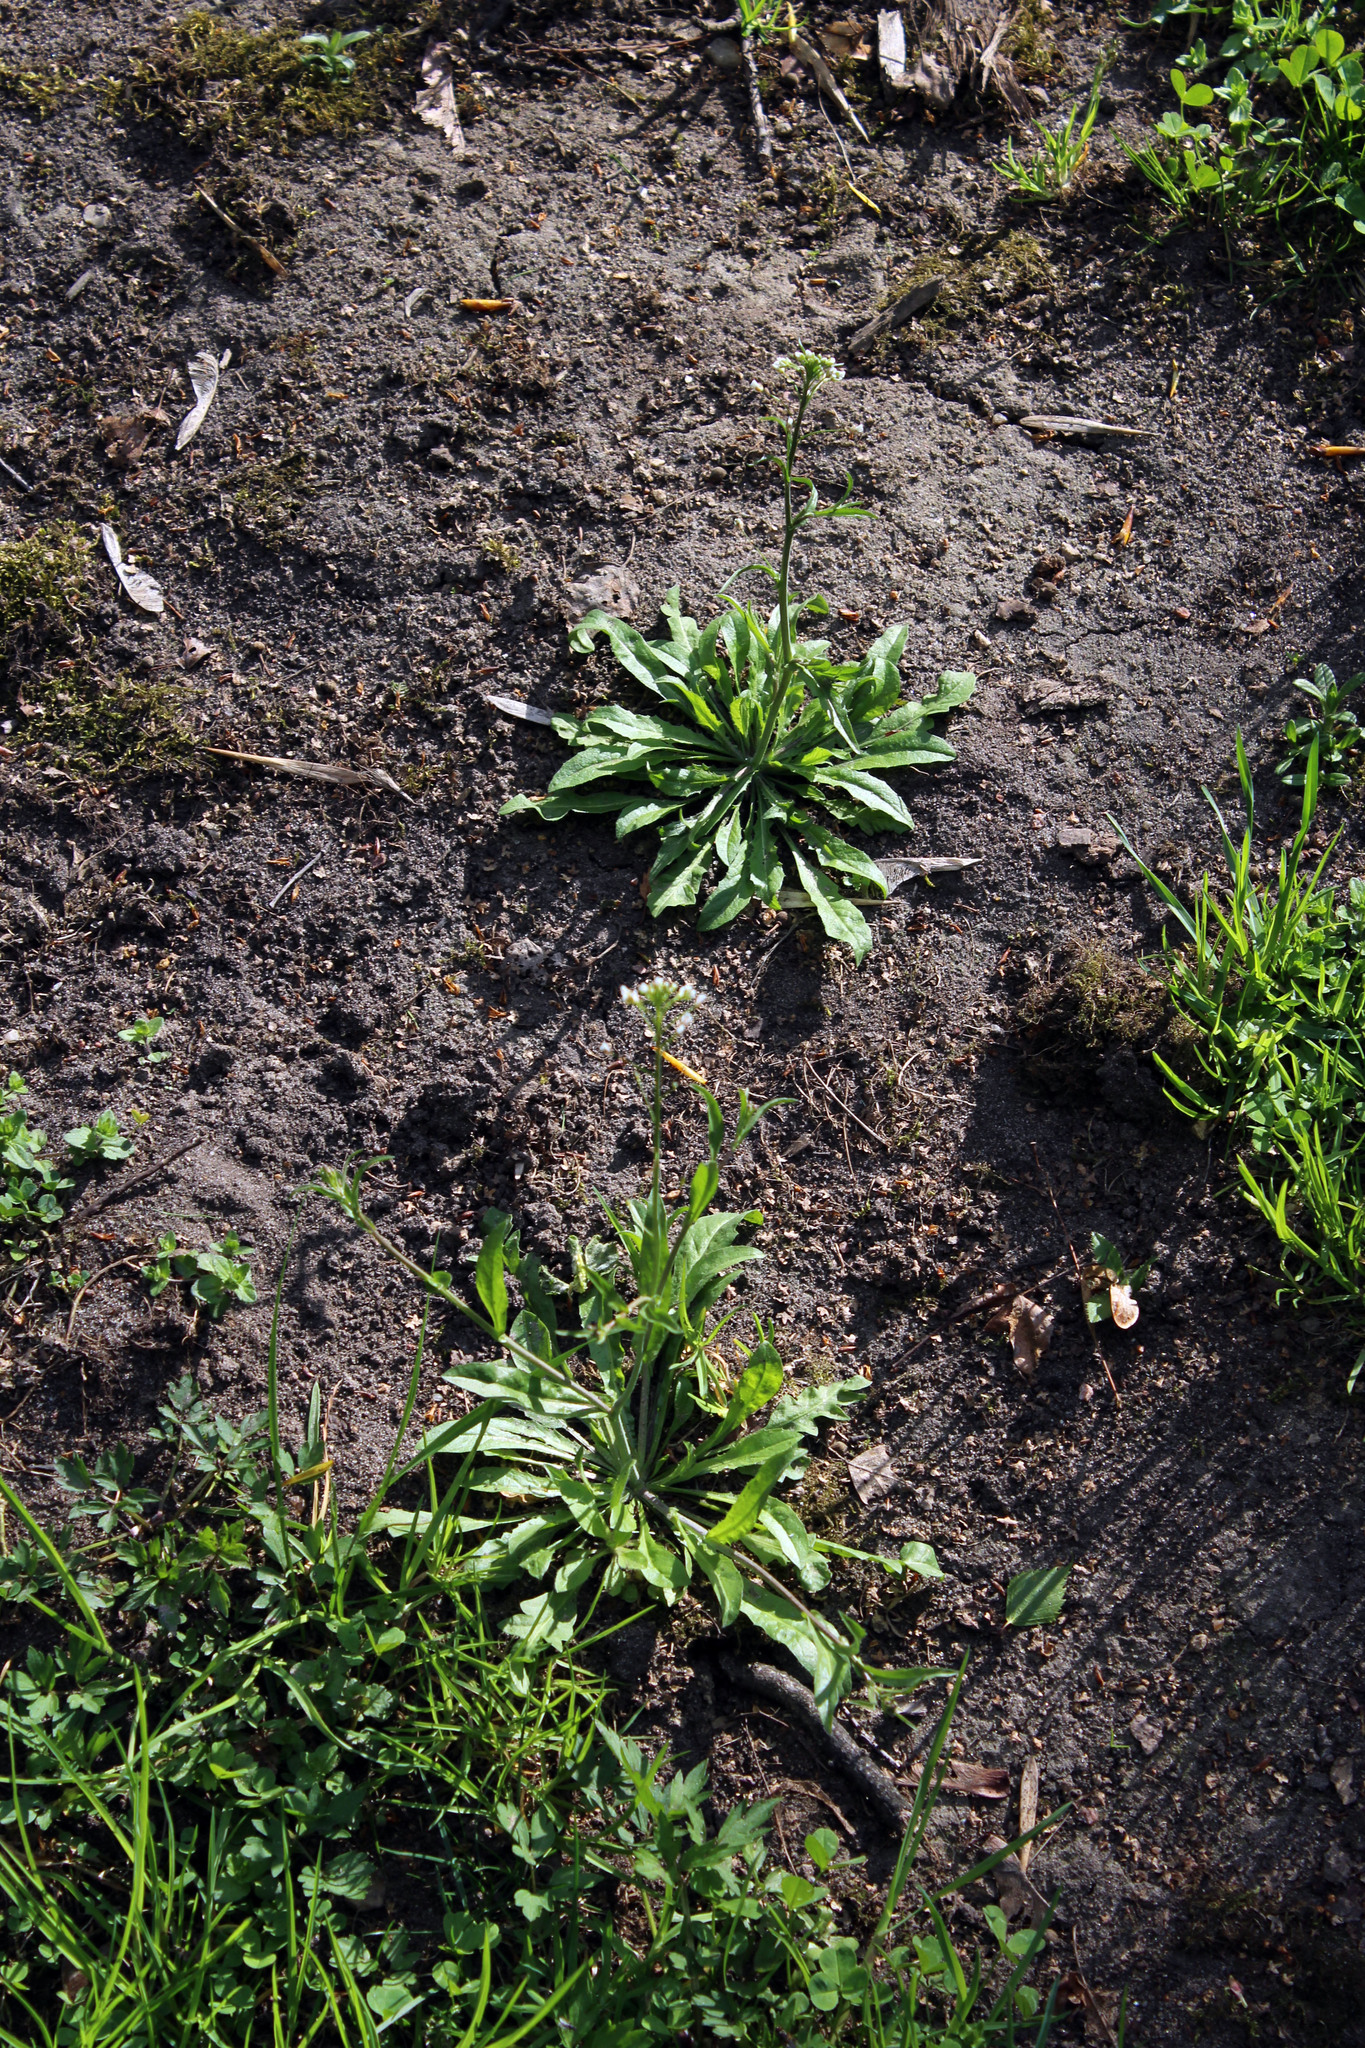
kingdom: Plantae
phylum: Tracheophyta
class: Magnoliopsida
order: Brassicales
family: Brassicaceae
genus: Capsella
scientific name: Capsella bursa-pastoris
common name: Shepherd's purse
